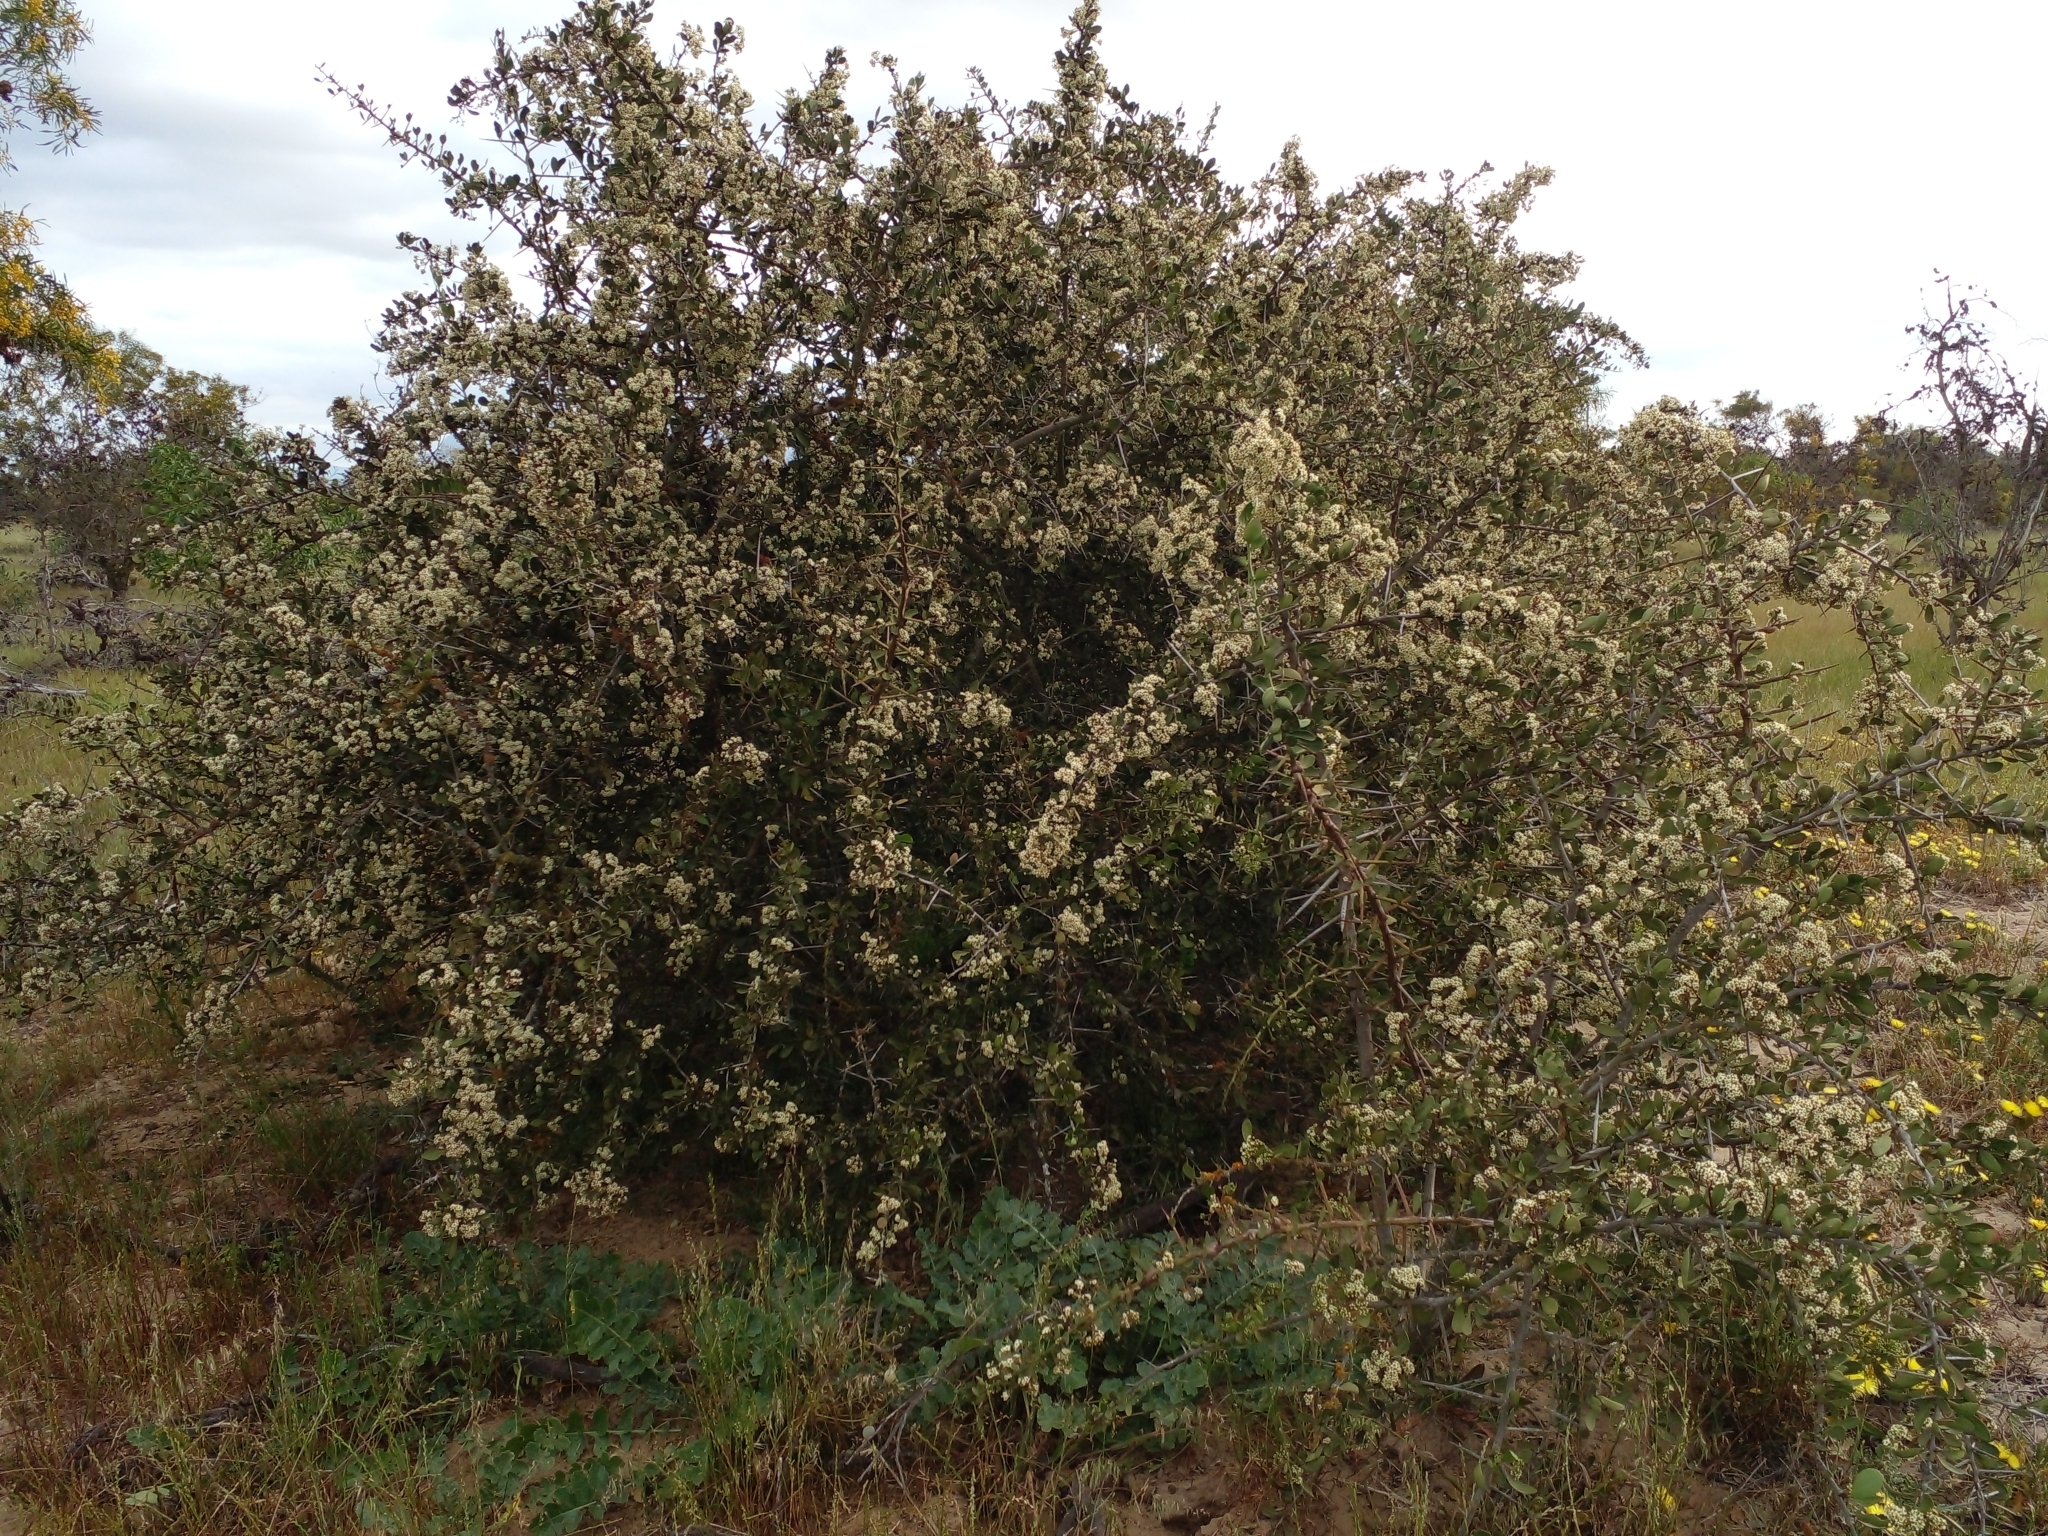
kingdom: Plantae
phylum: Tracheophyta
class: Magnoliopsida
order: Celastrales
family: Celastraceae
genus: Gymnosporia
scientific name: Gymnosporia buxifolia
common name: Common spike-thorn
